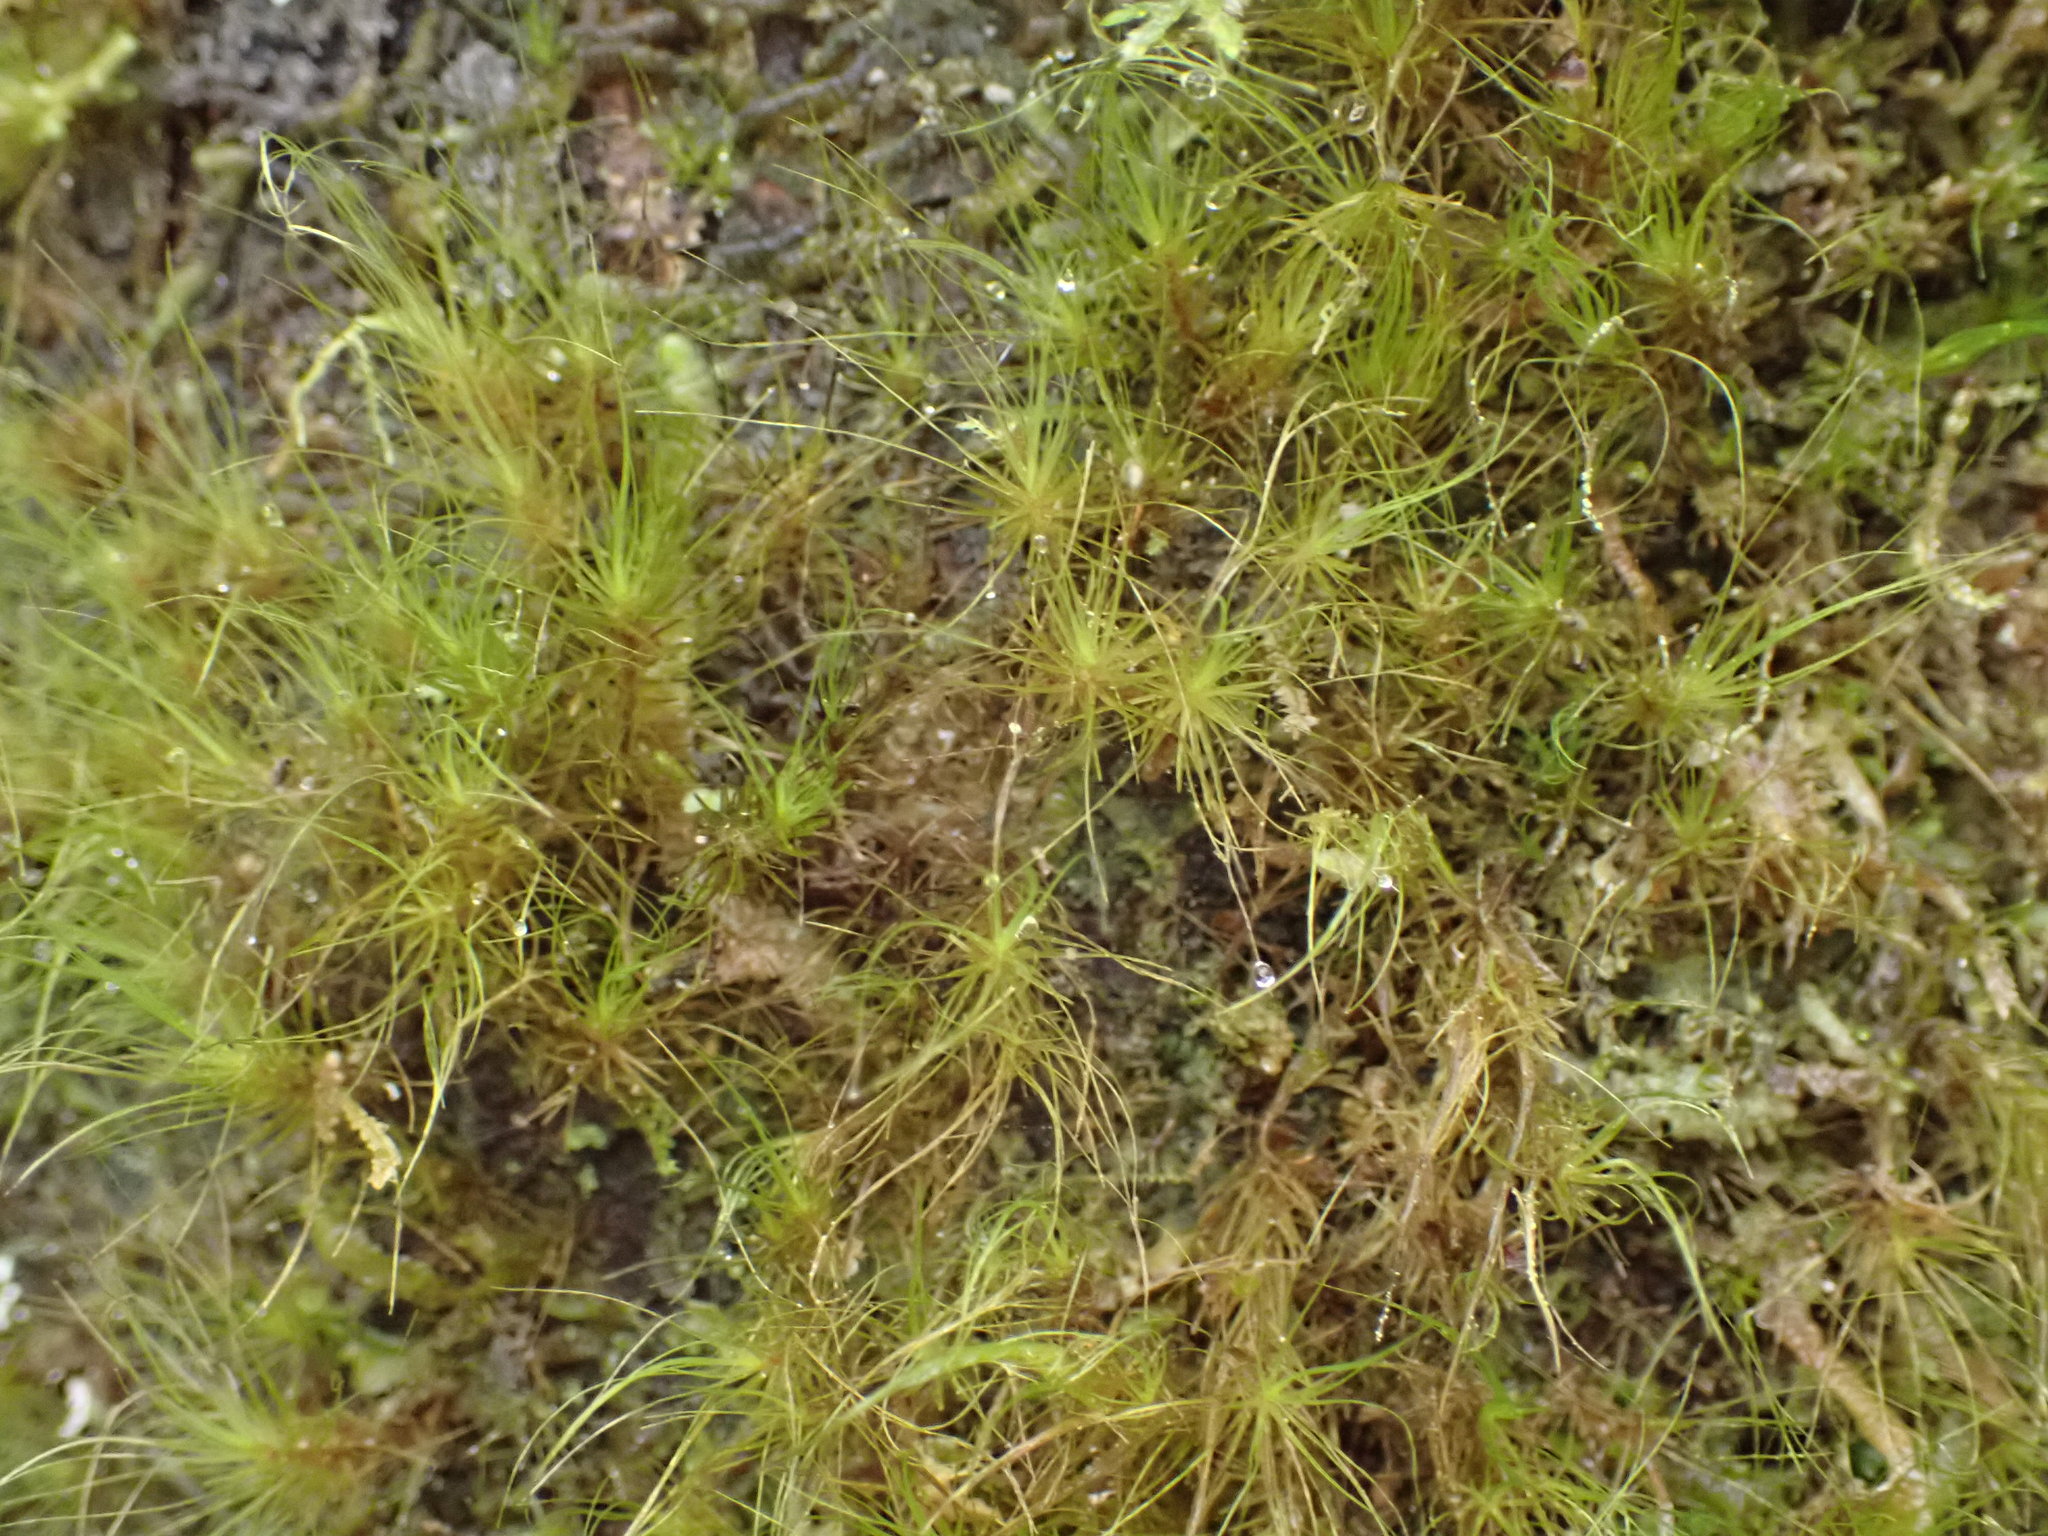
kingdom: Plantae
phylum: Bryophyta
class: Bryopsida
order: Dicranales
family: Dicranaceae
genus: Dicranoloma
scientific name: Dicranoloma menziesii
